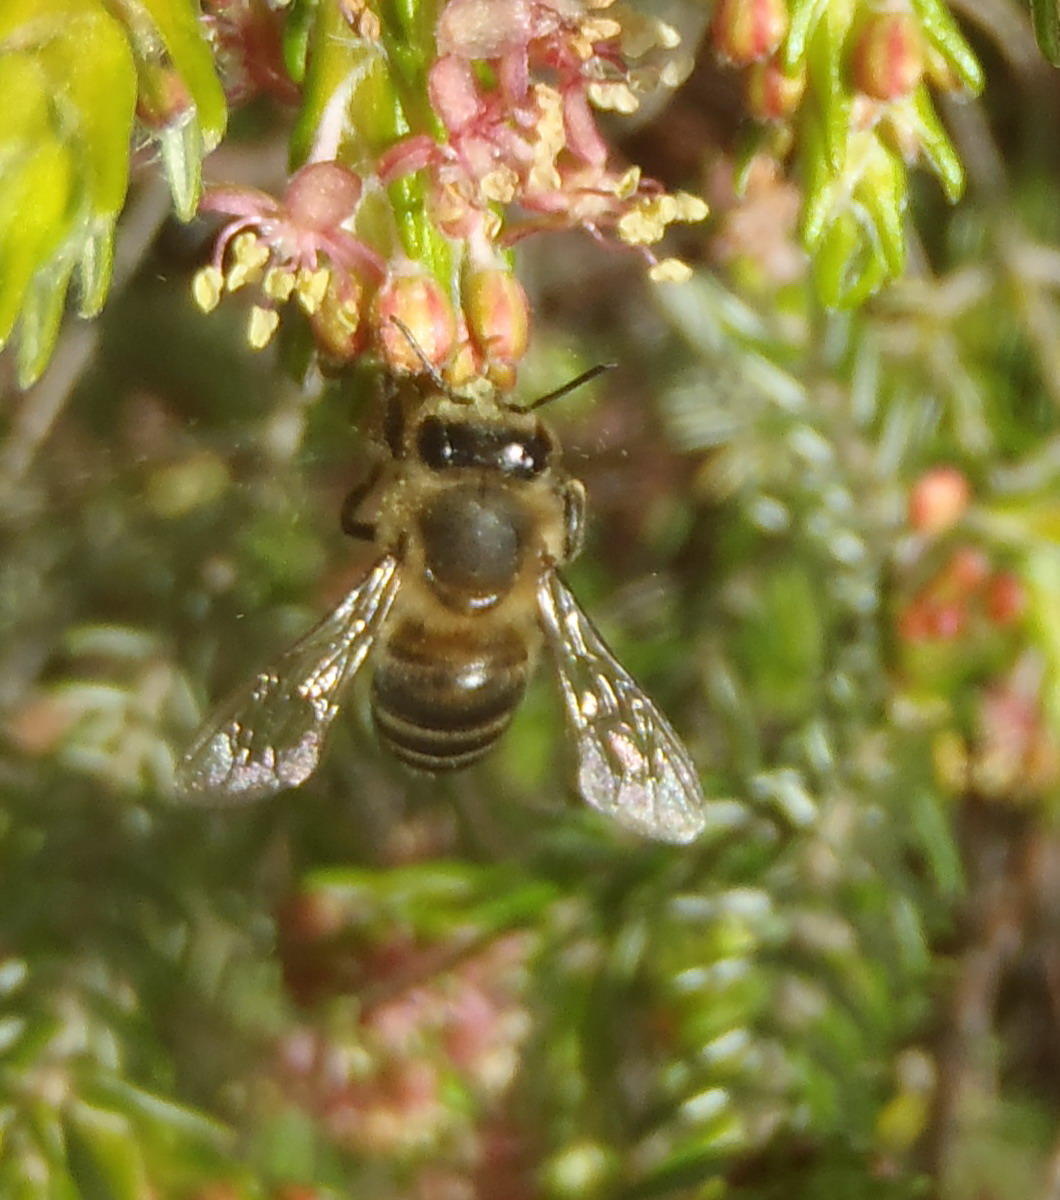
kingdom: Animalia
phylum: Arthropoda
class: Insecta
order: Hymenoptera
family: Apidae
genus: Apis
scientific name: Apis mellifera
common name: Honey bee
